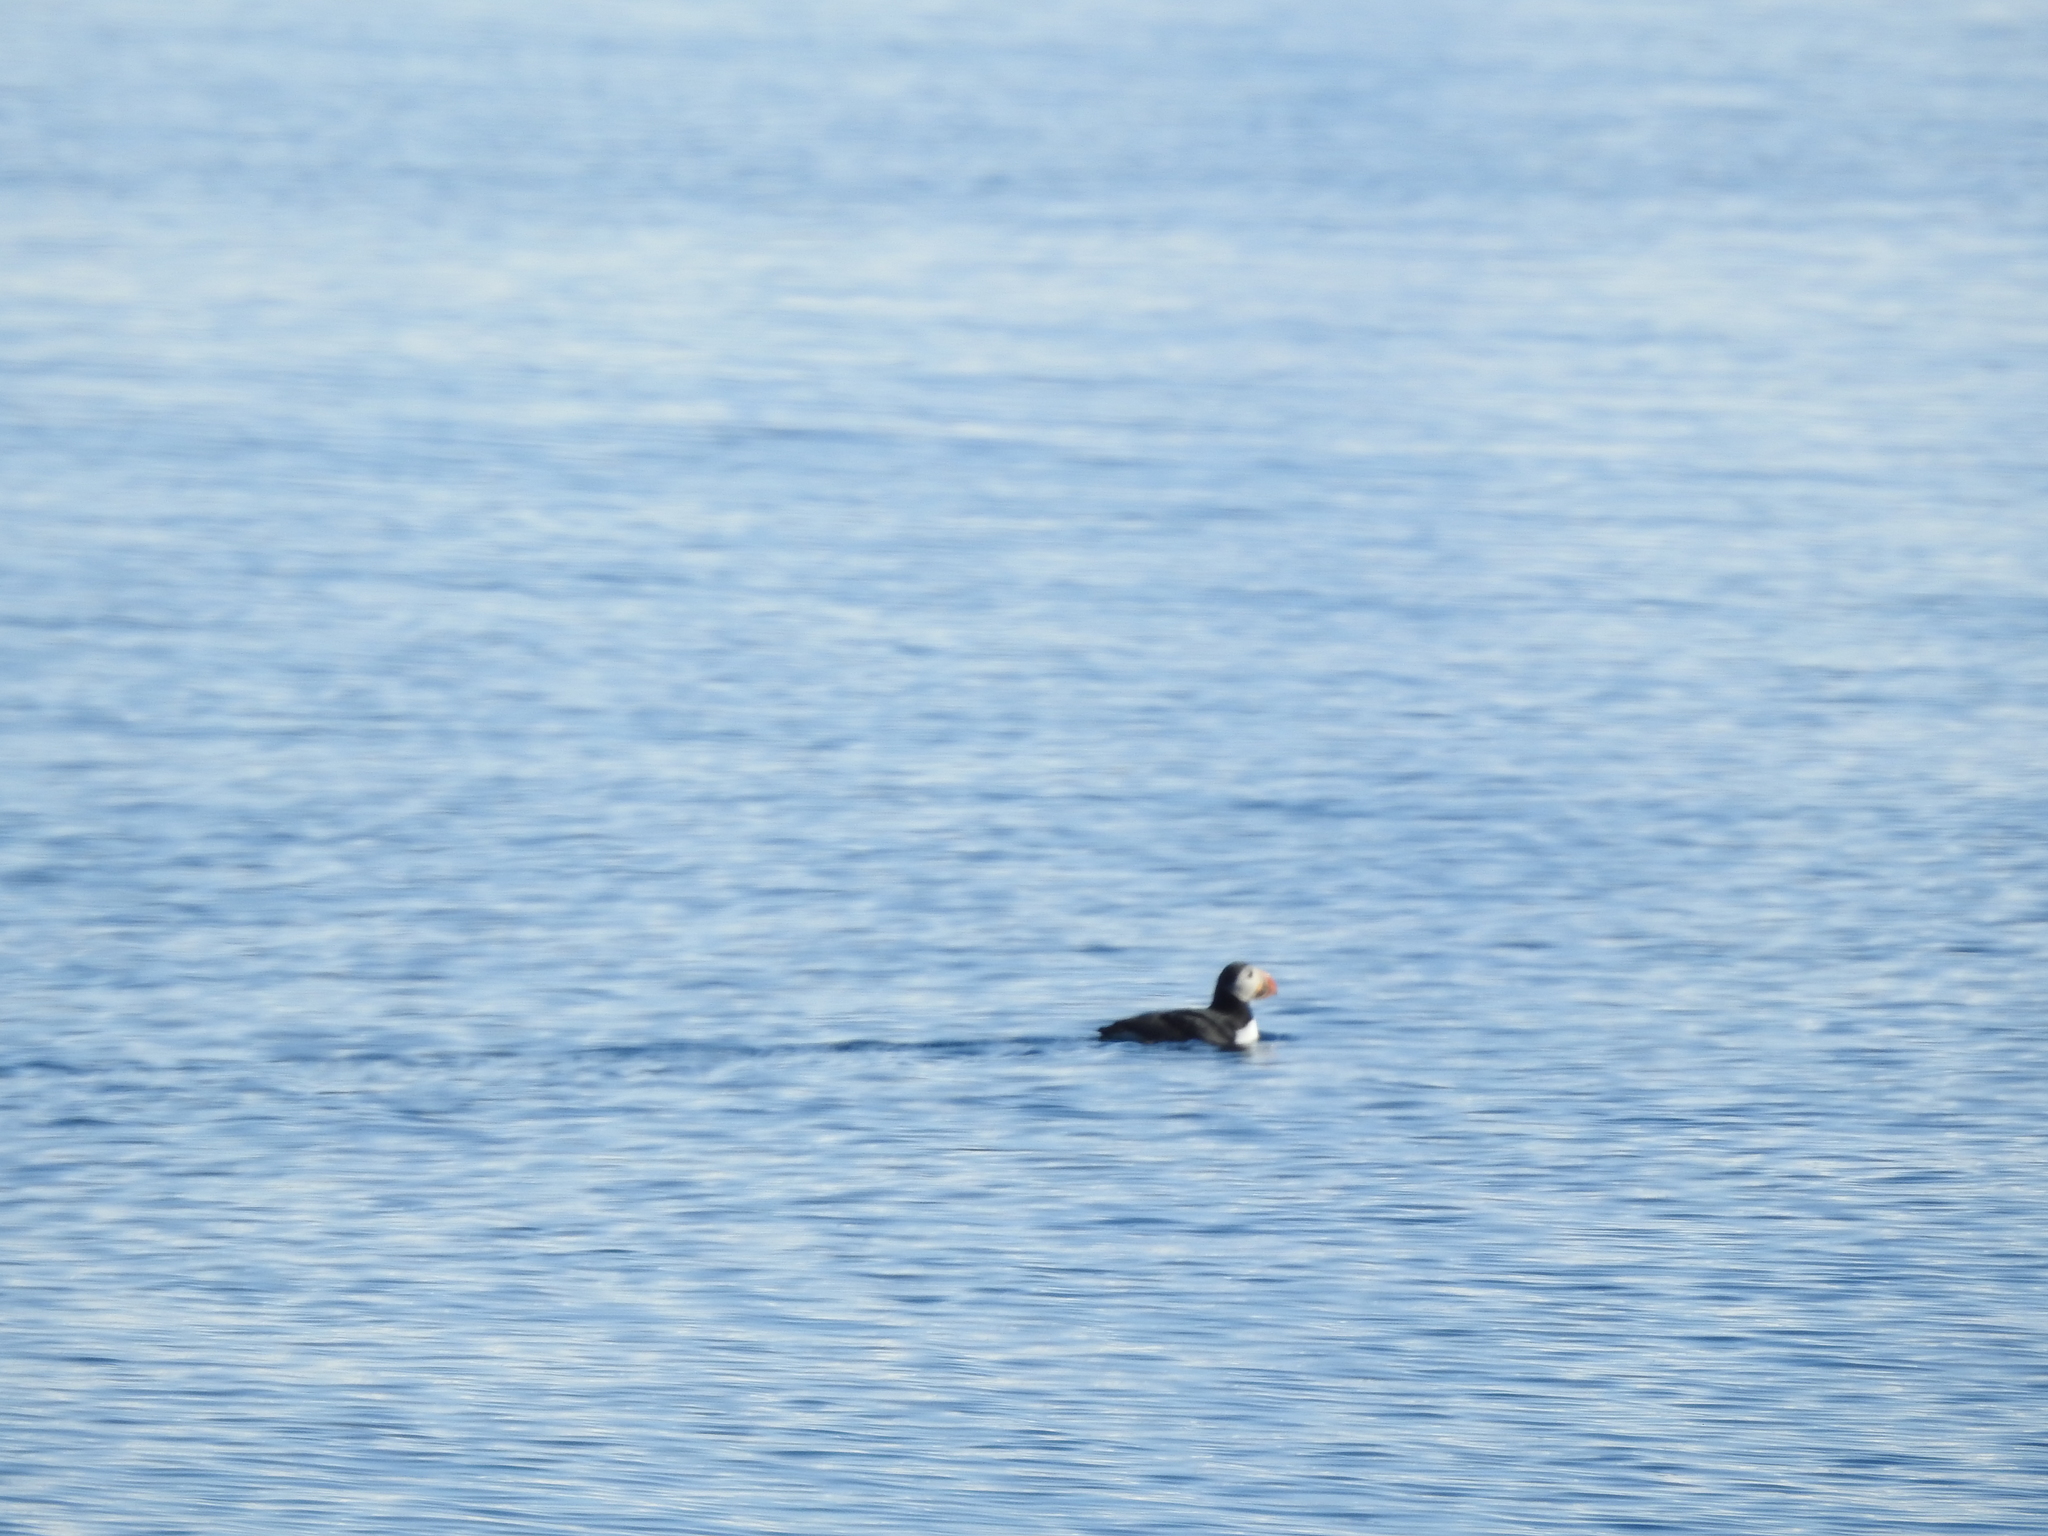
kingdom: Animalia
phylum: Chordata
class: Aves
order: Charadriiformes
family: Alcidae
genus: Fratercula
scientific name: Fratercula arctica
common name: Atlantic puffin
